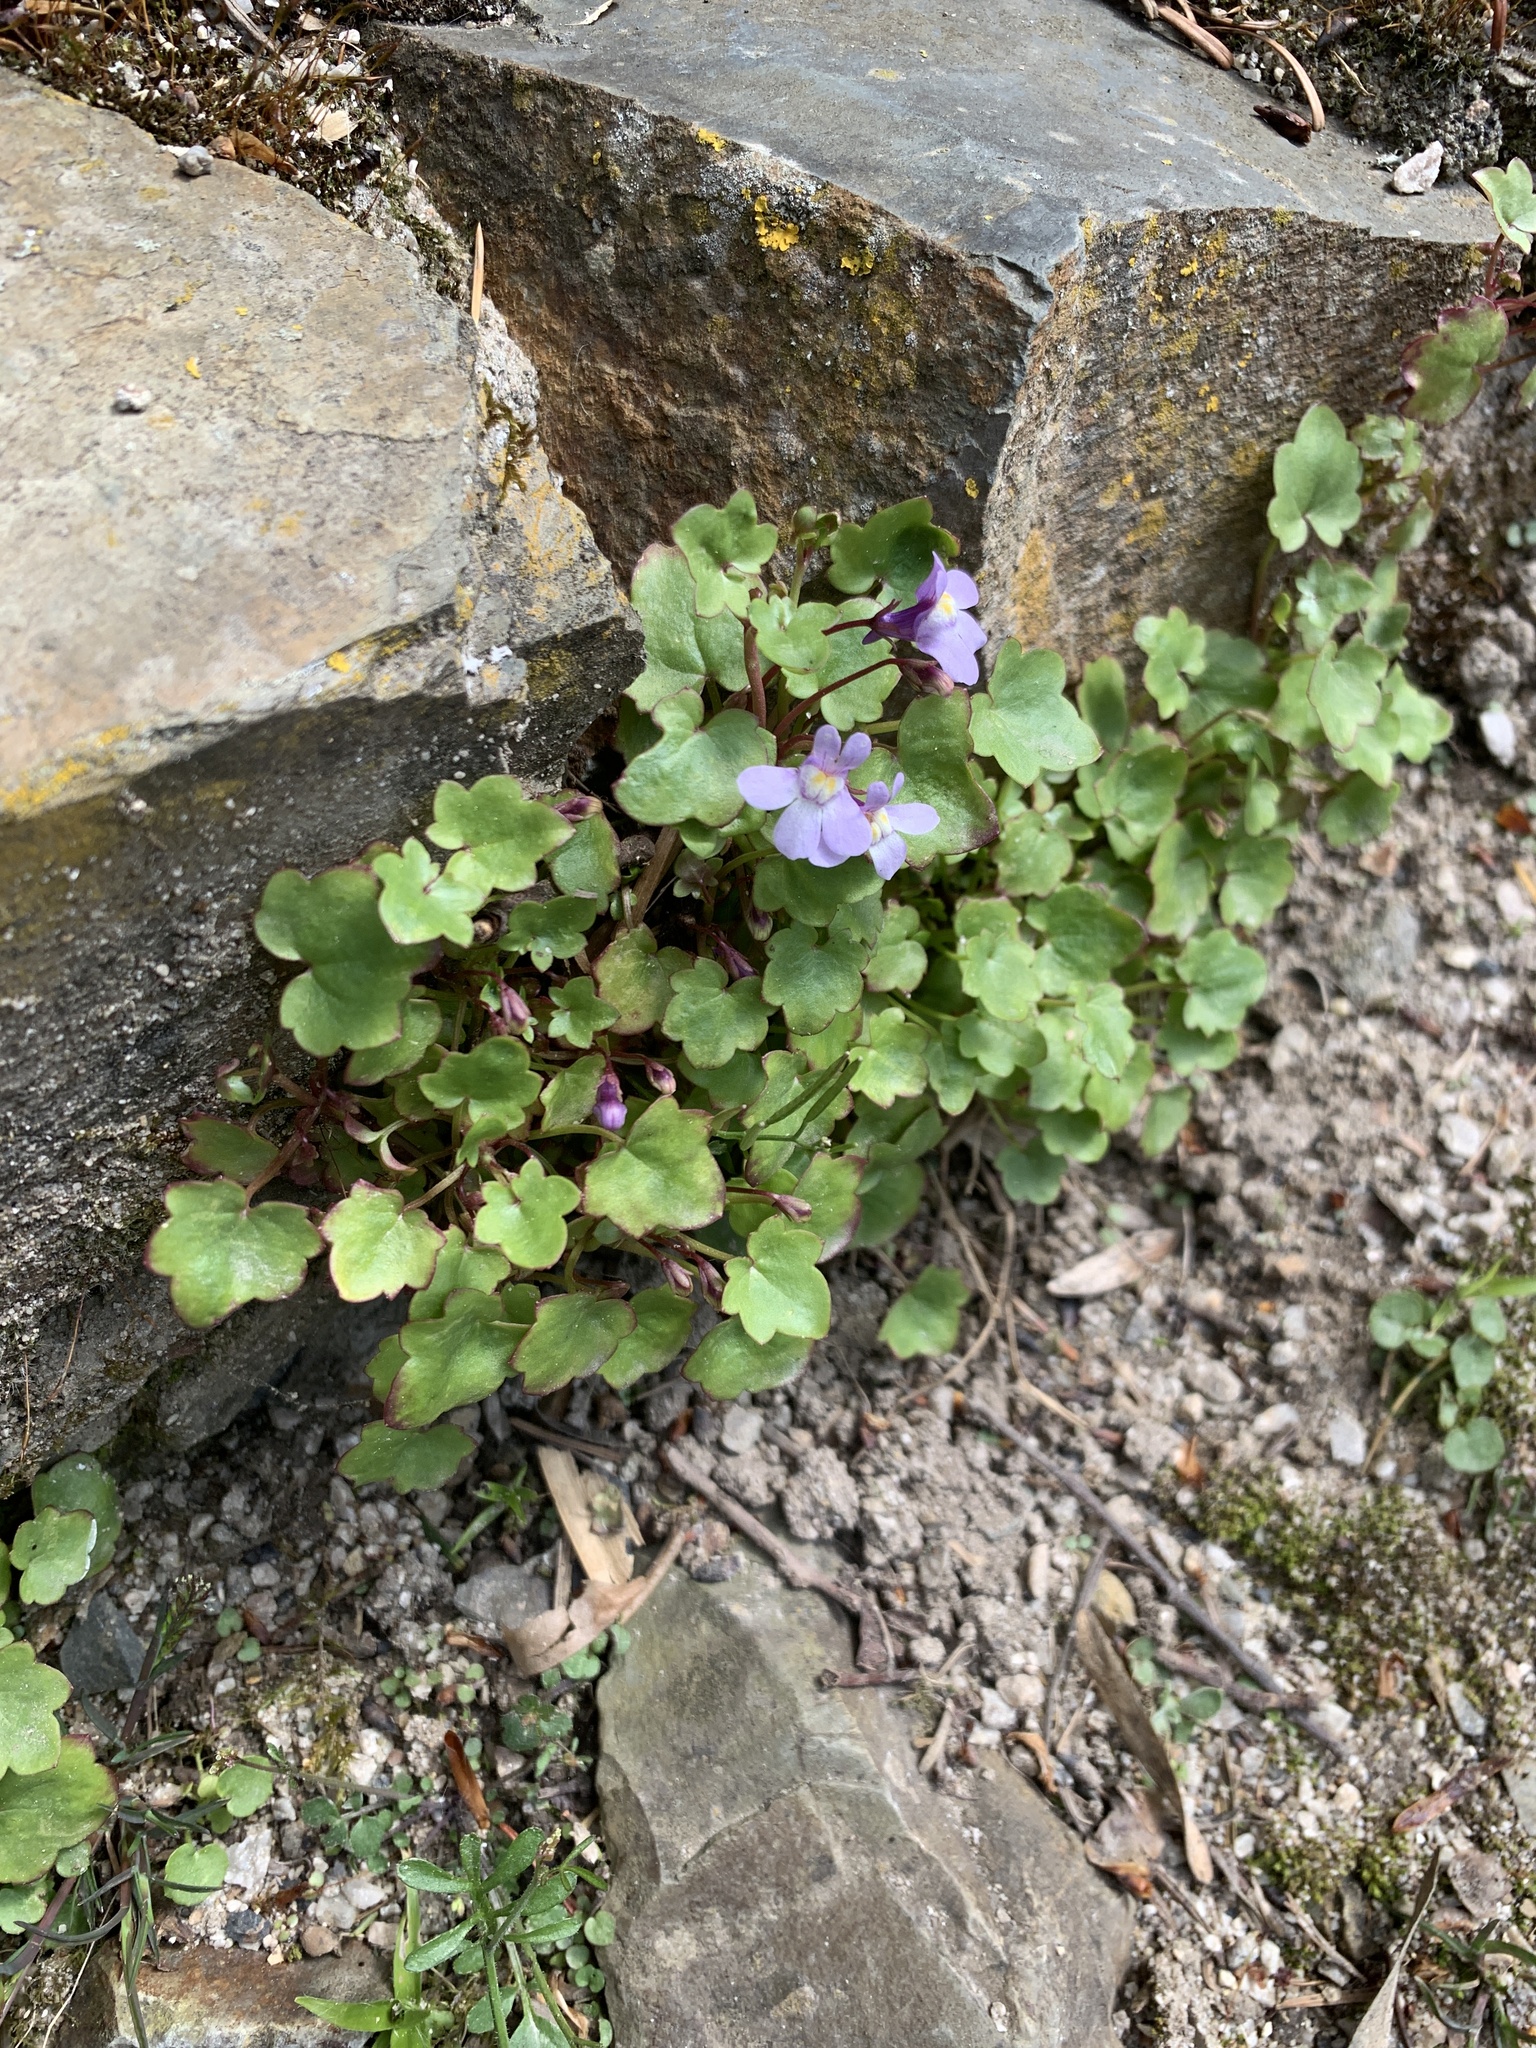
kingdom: Plantae
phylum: Tracheophyta
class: Magnoliopsida
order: Lamiales
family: Plantaginaceae
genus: Cymbalaria
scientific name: Cymbalaria muralis
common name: Ivy-leaved toadflax
